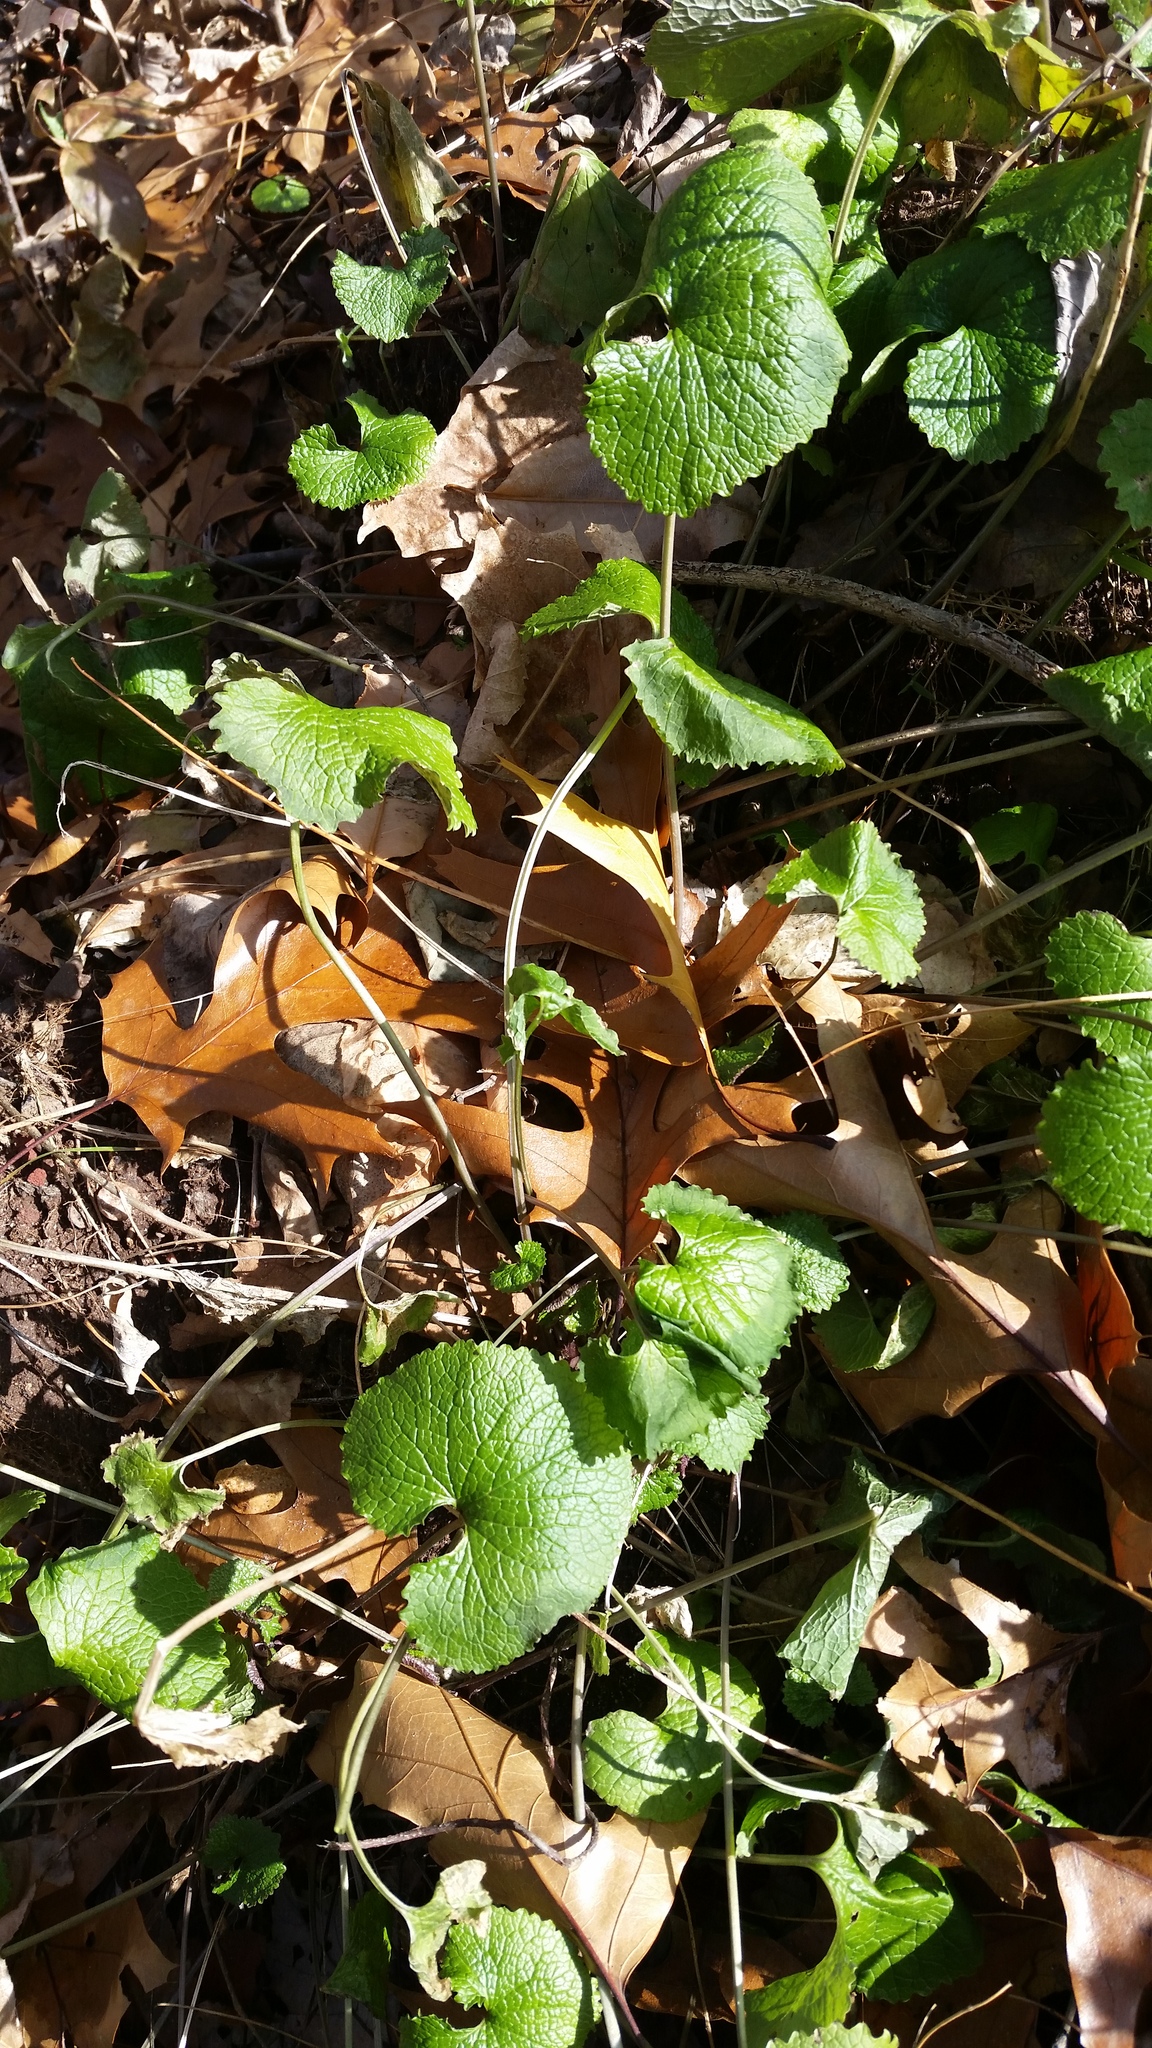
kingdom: Plantae
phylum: Tracheophyta
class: Magnoliopsida
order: Brassicales
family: Brassicaceae
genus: Alliaria
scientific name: Alliaria petiolata
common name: Garlic mustard
